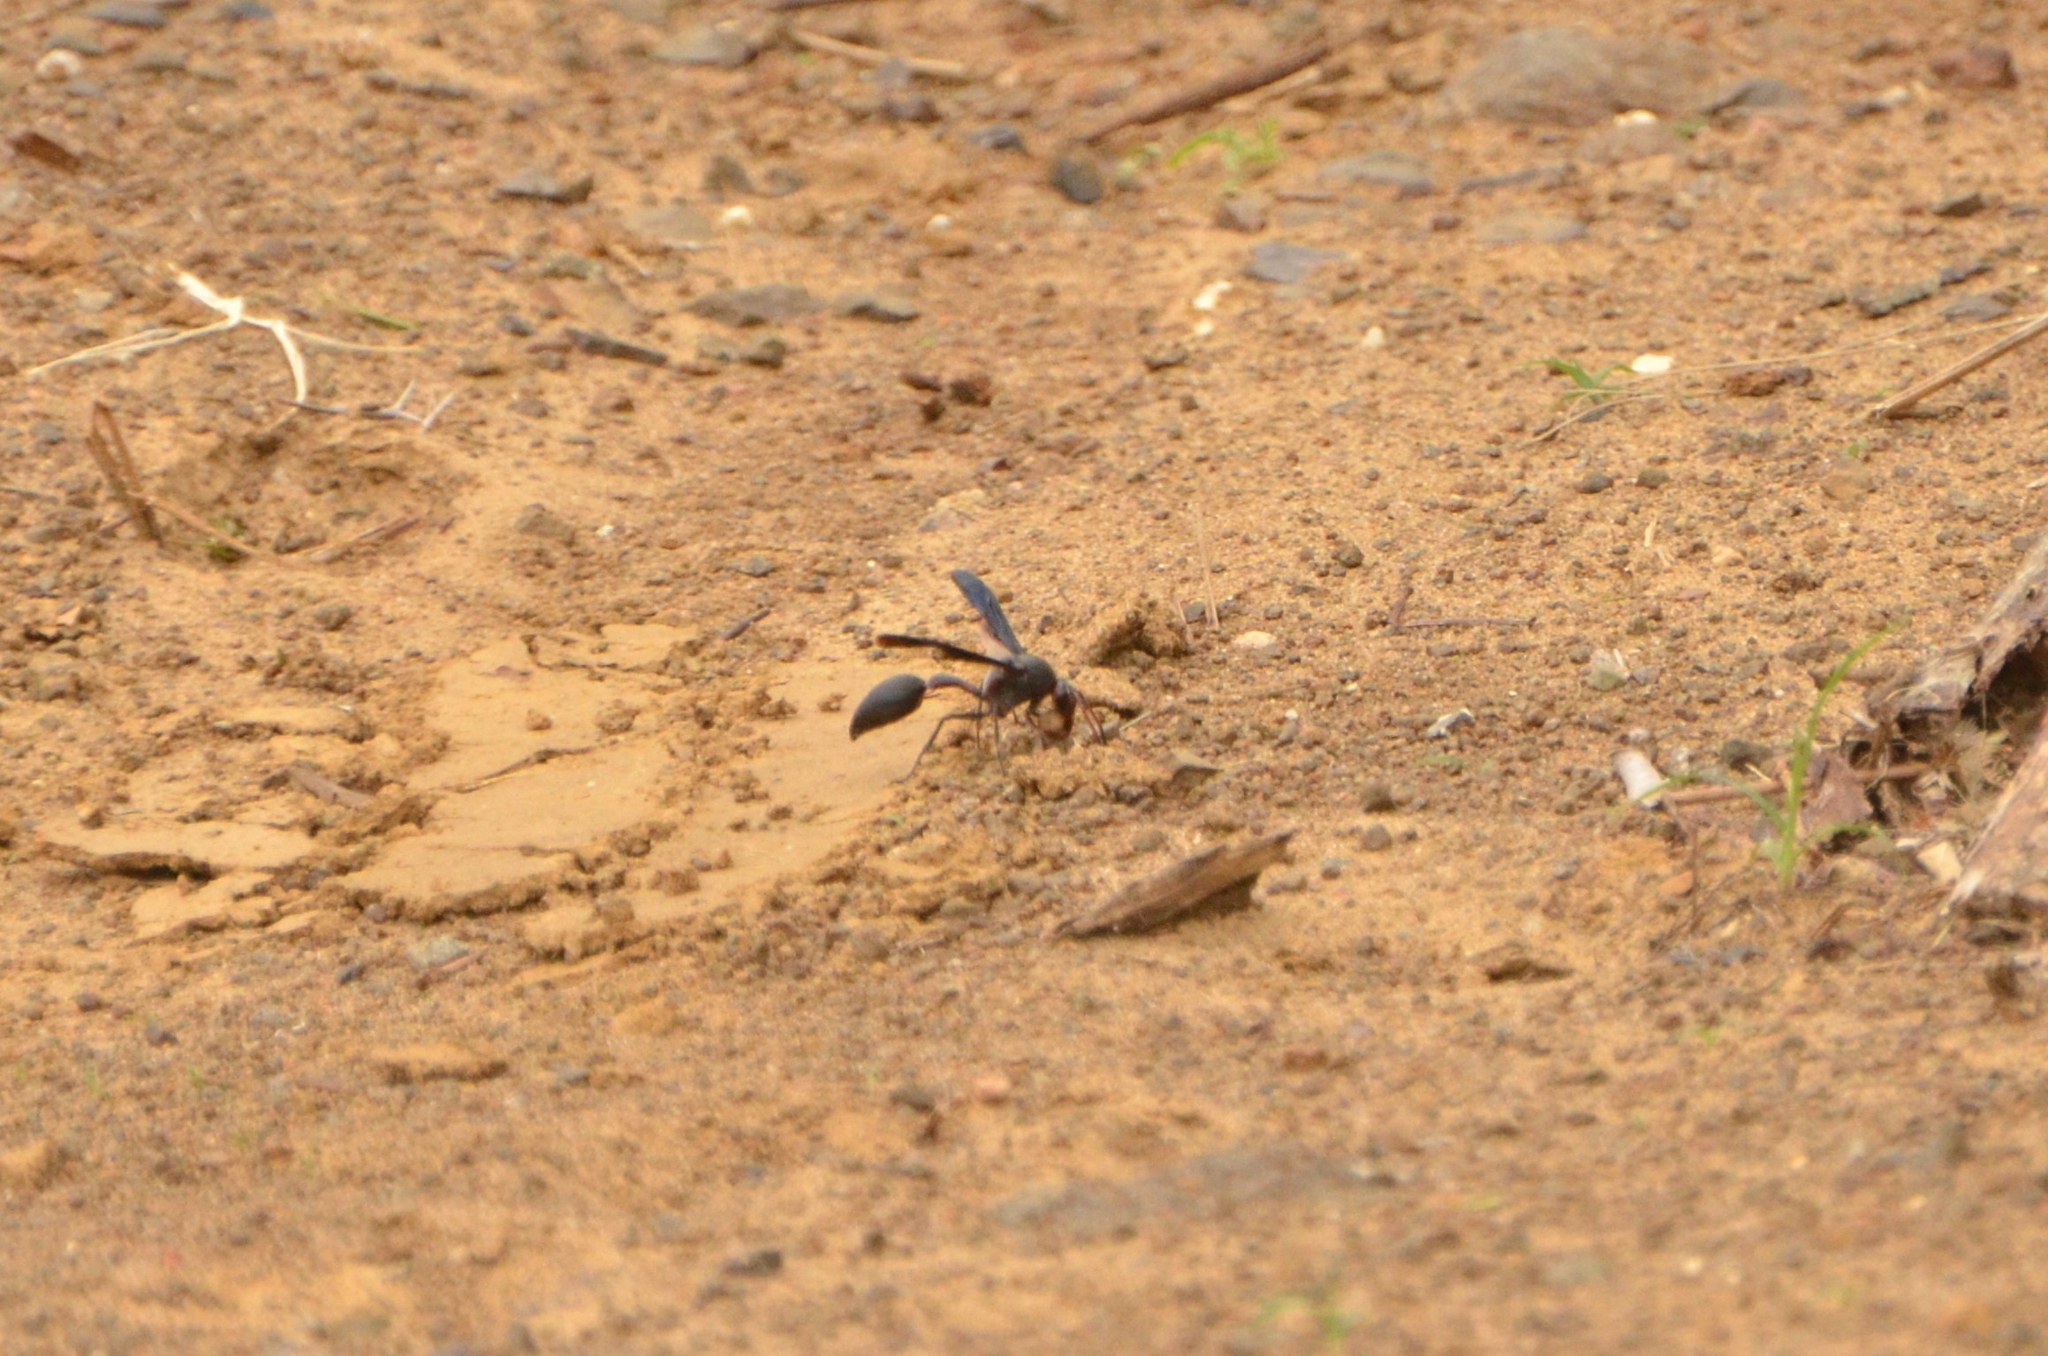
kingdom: Animalia
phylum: Arthropoda
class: Insecta
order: Hymenoptera
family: Eumenidae
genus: Delta
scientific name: Delta emarginatum
